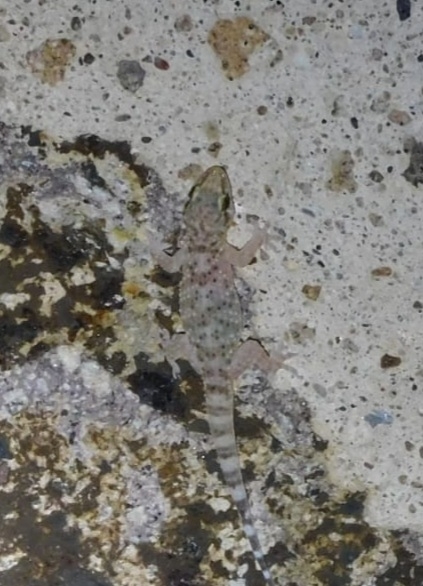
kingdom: Animalia
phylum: Chordata
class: Squamata
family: Gekkonidae
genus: Hemidactylus
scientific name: Hemidactylus turcicus
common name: Turkish gecko
